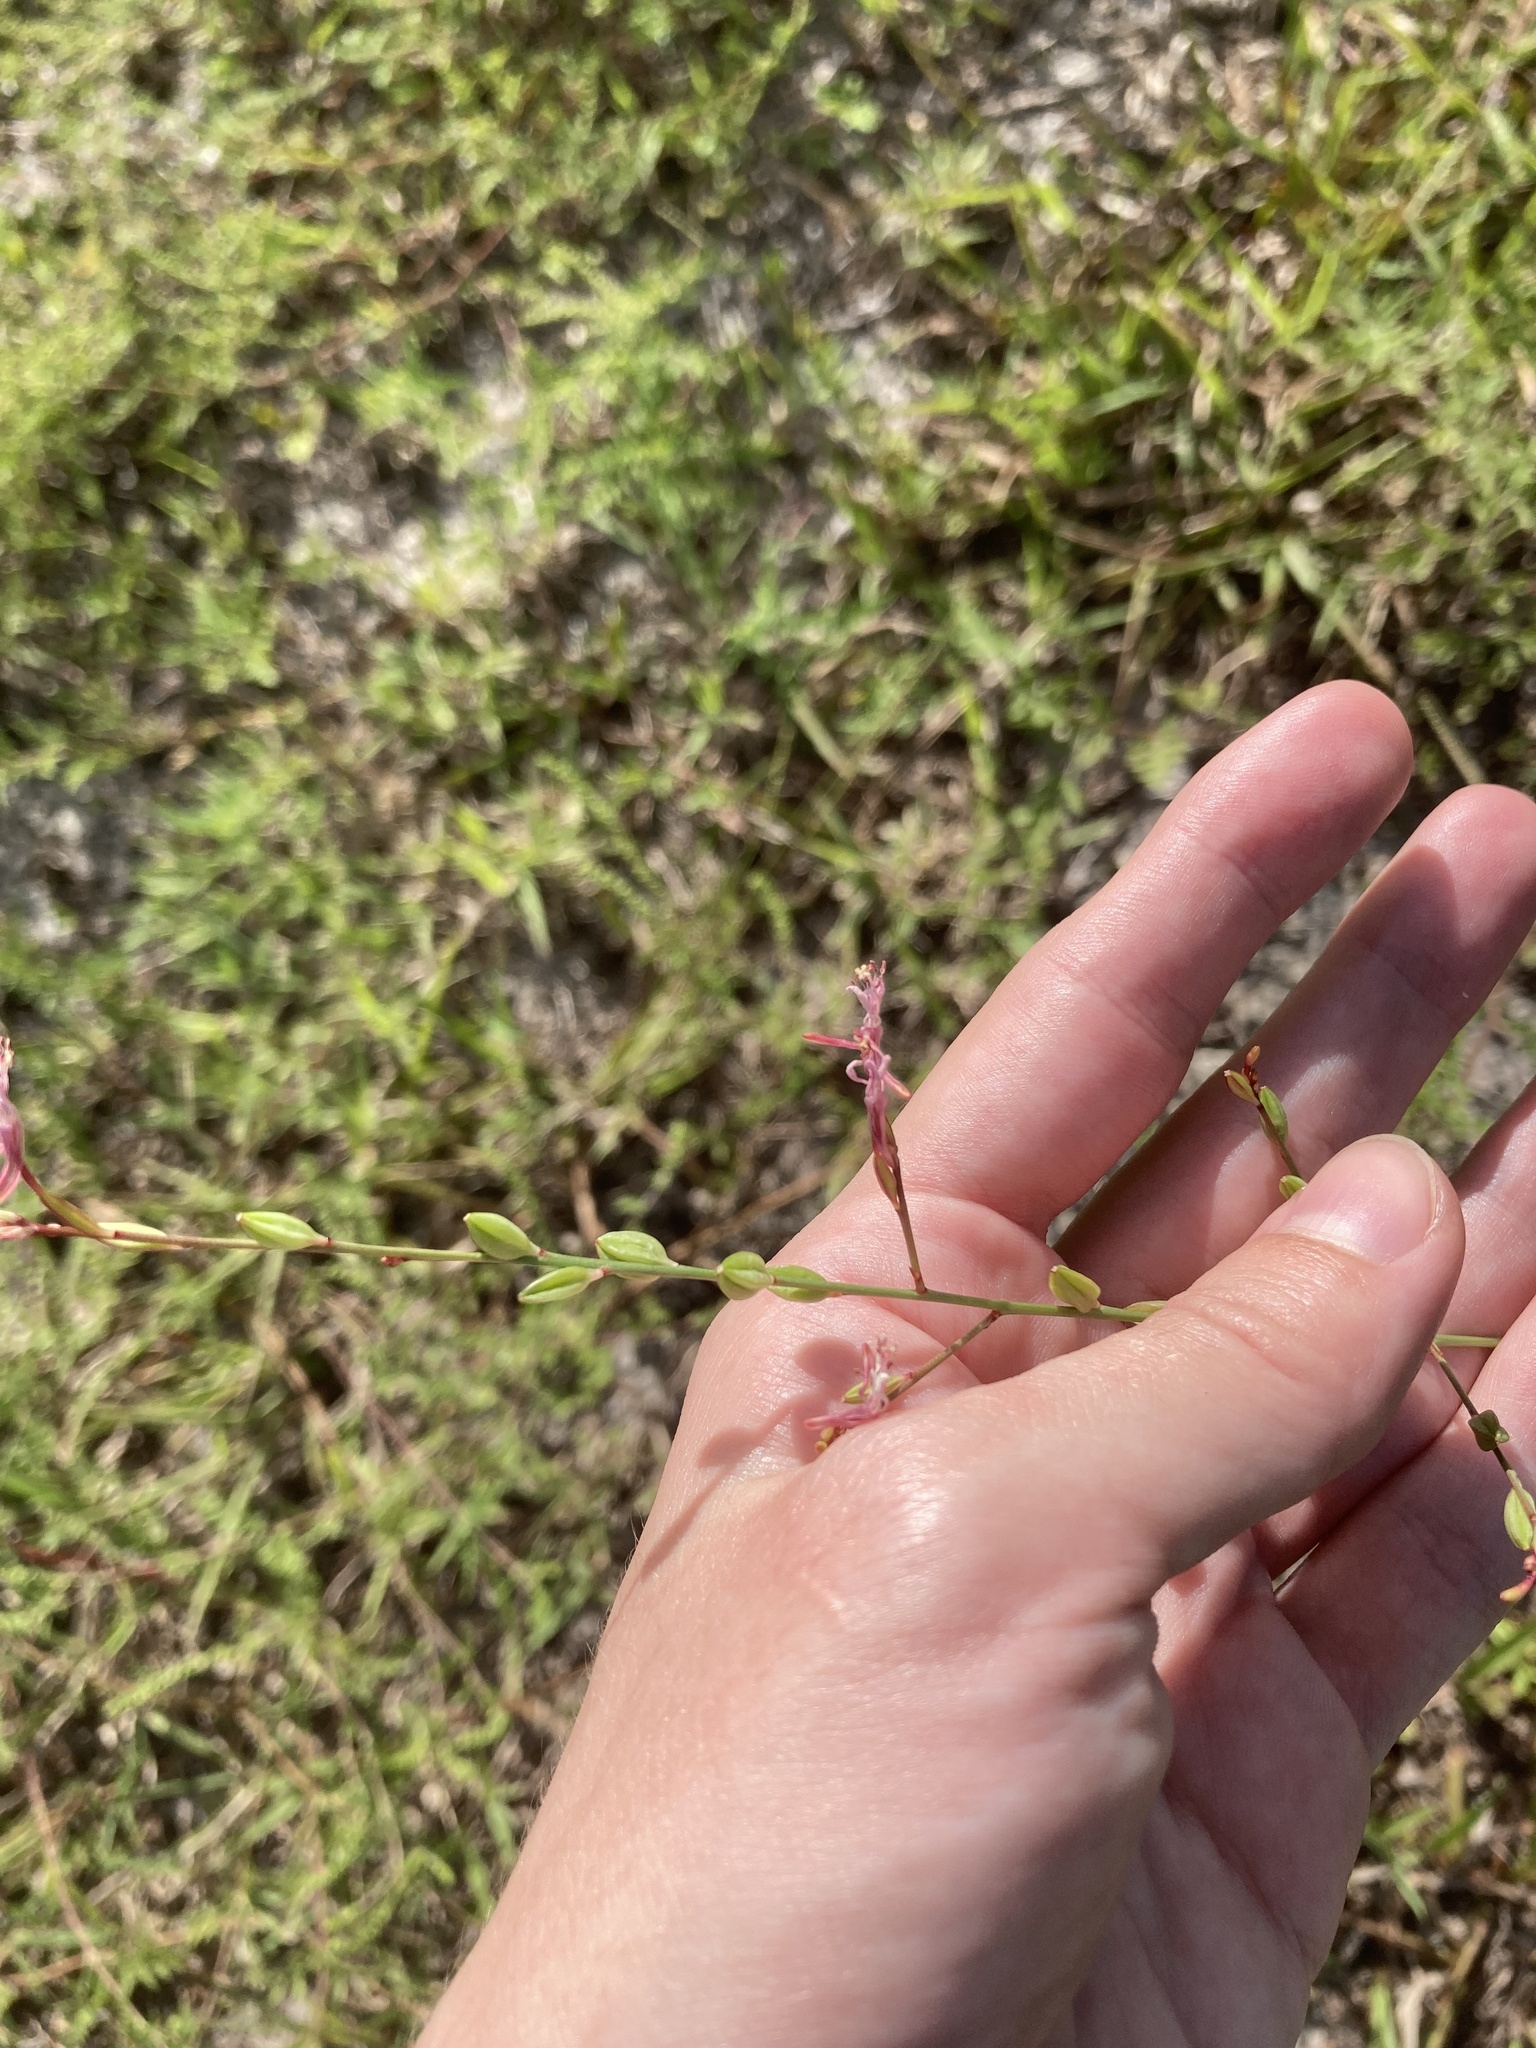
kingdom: Plantae
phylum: Tracheophyta
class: Magnoliopsida
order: Myrtales
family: Onagraceae
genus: Oenothera
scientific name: Oenothera simulans
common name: Southern beeblossom
